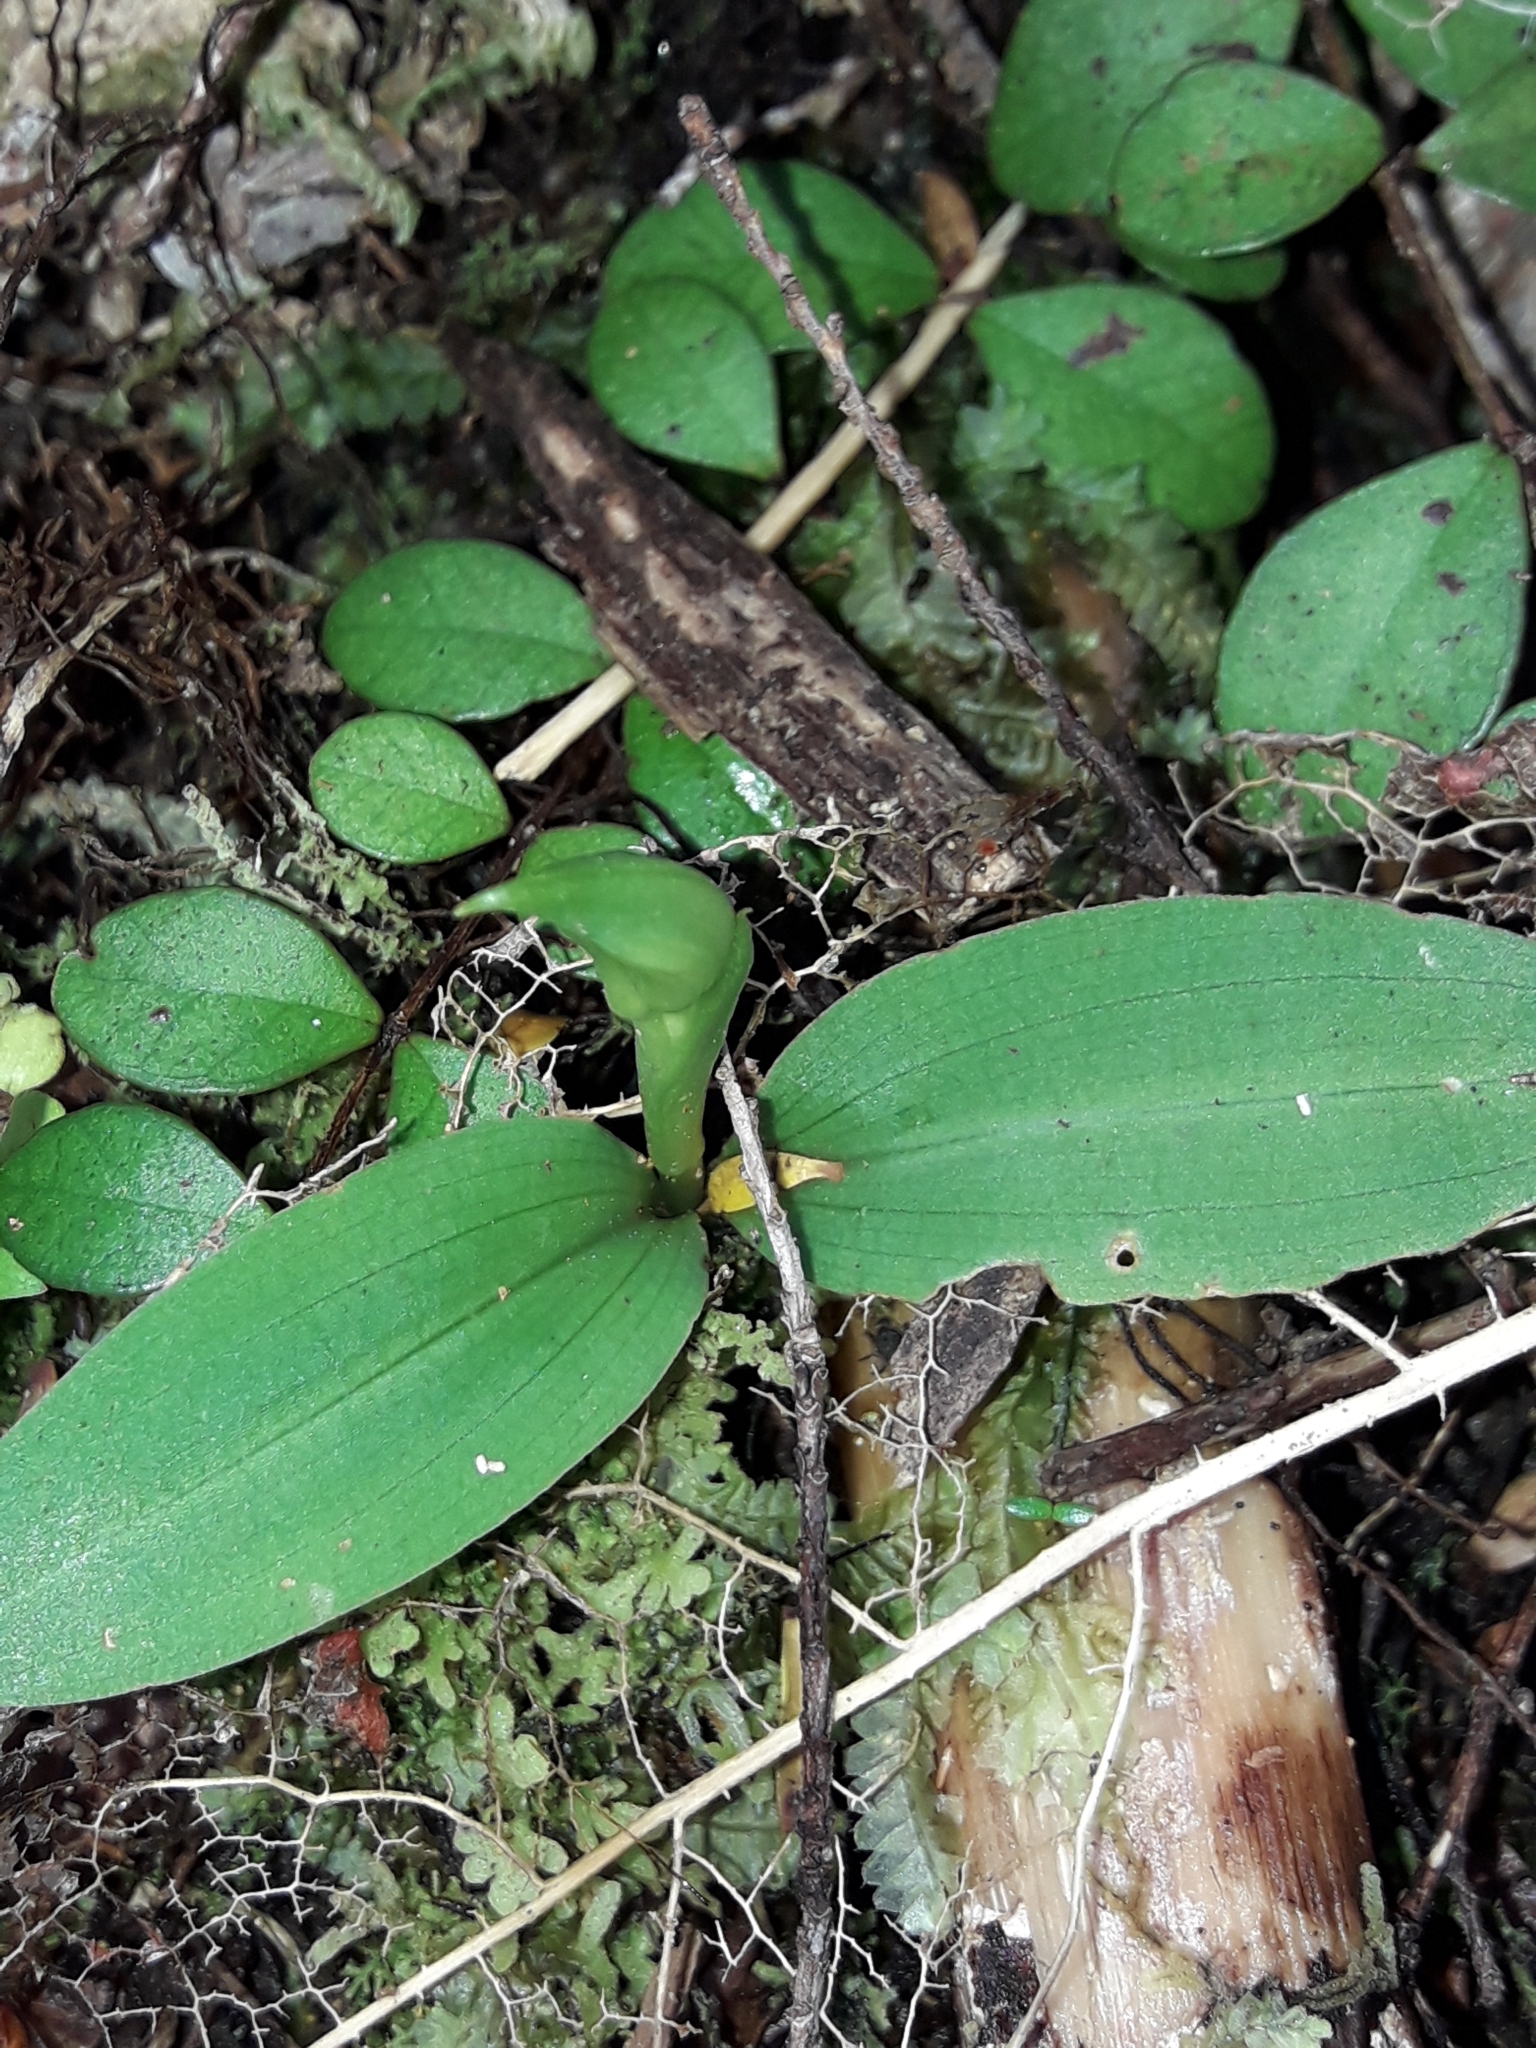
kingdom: Plantae
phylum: Tracheophyta
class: Liliopsida
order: Asparagales
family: Orchidaceae
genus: Chiloglottis
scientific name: Chiloglottis cornuta
